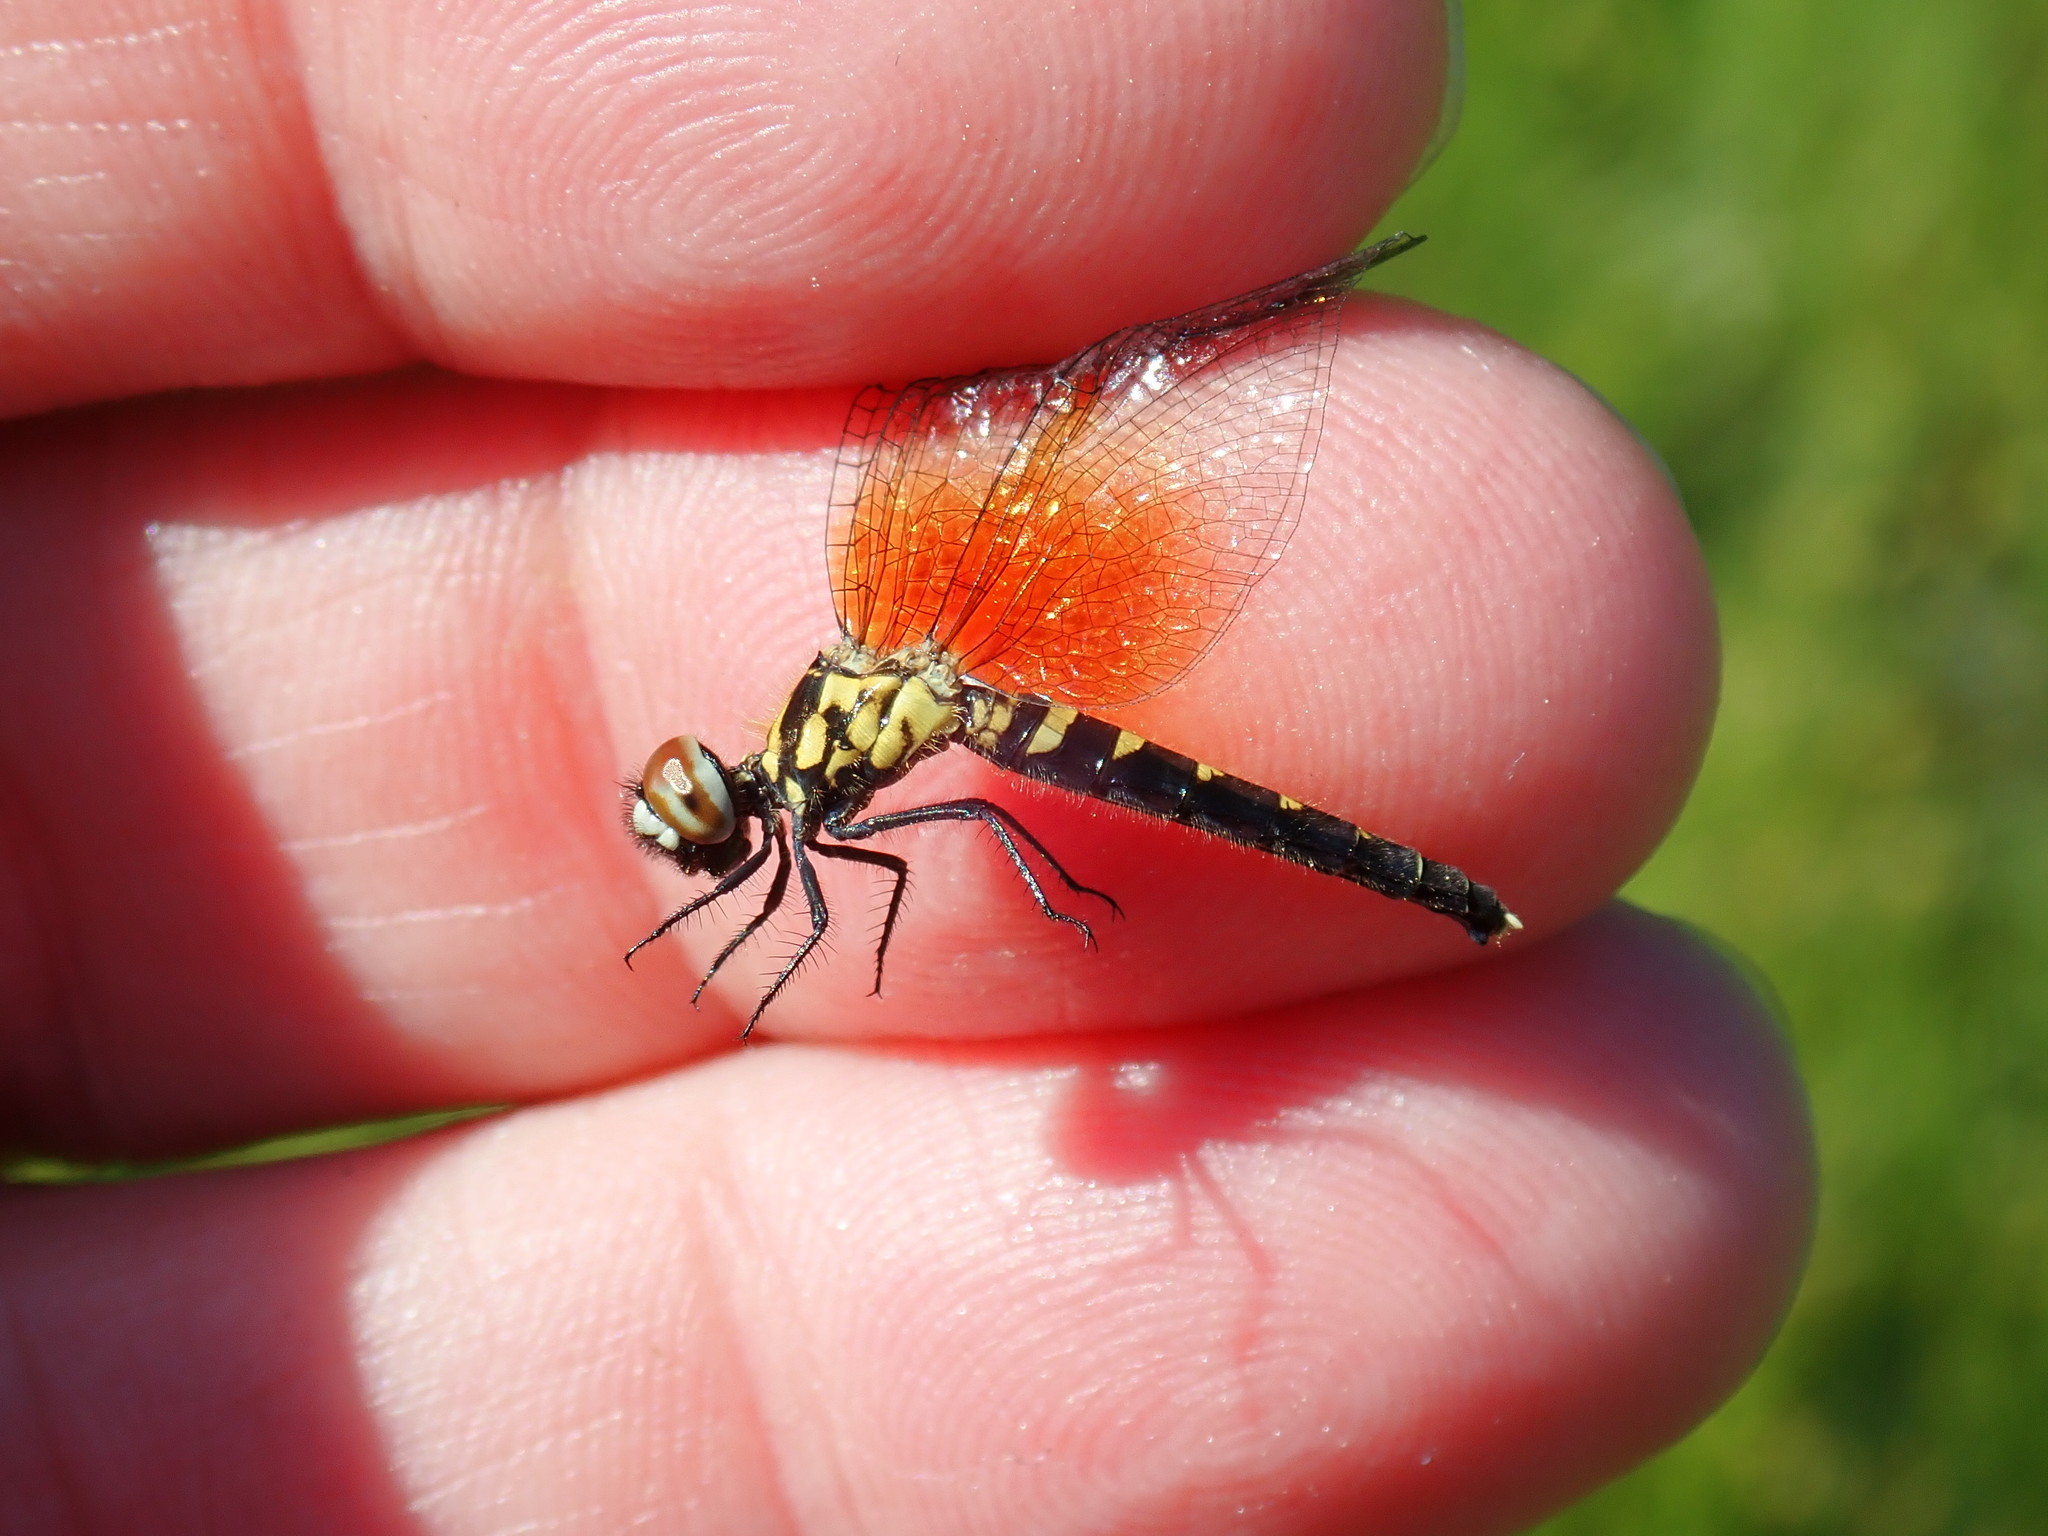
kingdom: Animalia
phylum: Arthropoda
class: Insecta
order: Odonata
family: Libellulidae
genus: Nannothemis
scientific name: Nannothemis bella
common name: Elfin skimmer
